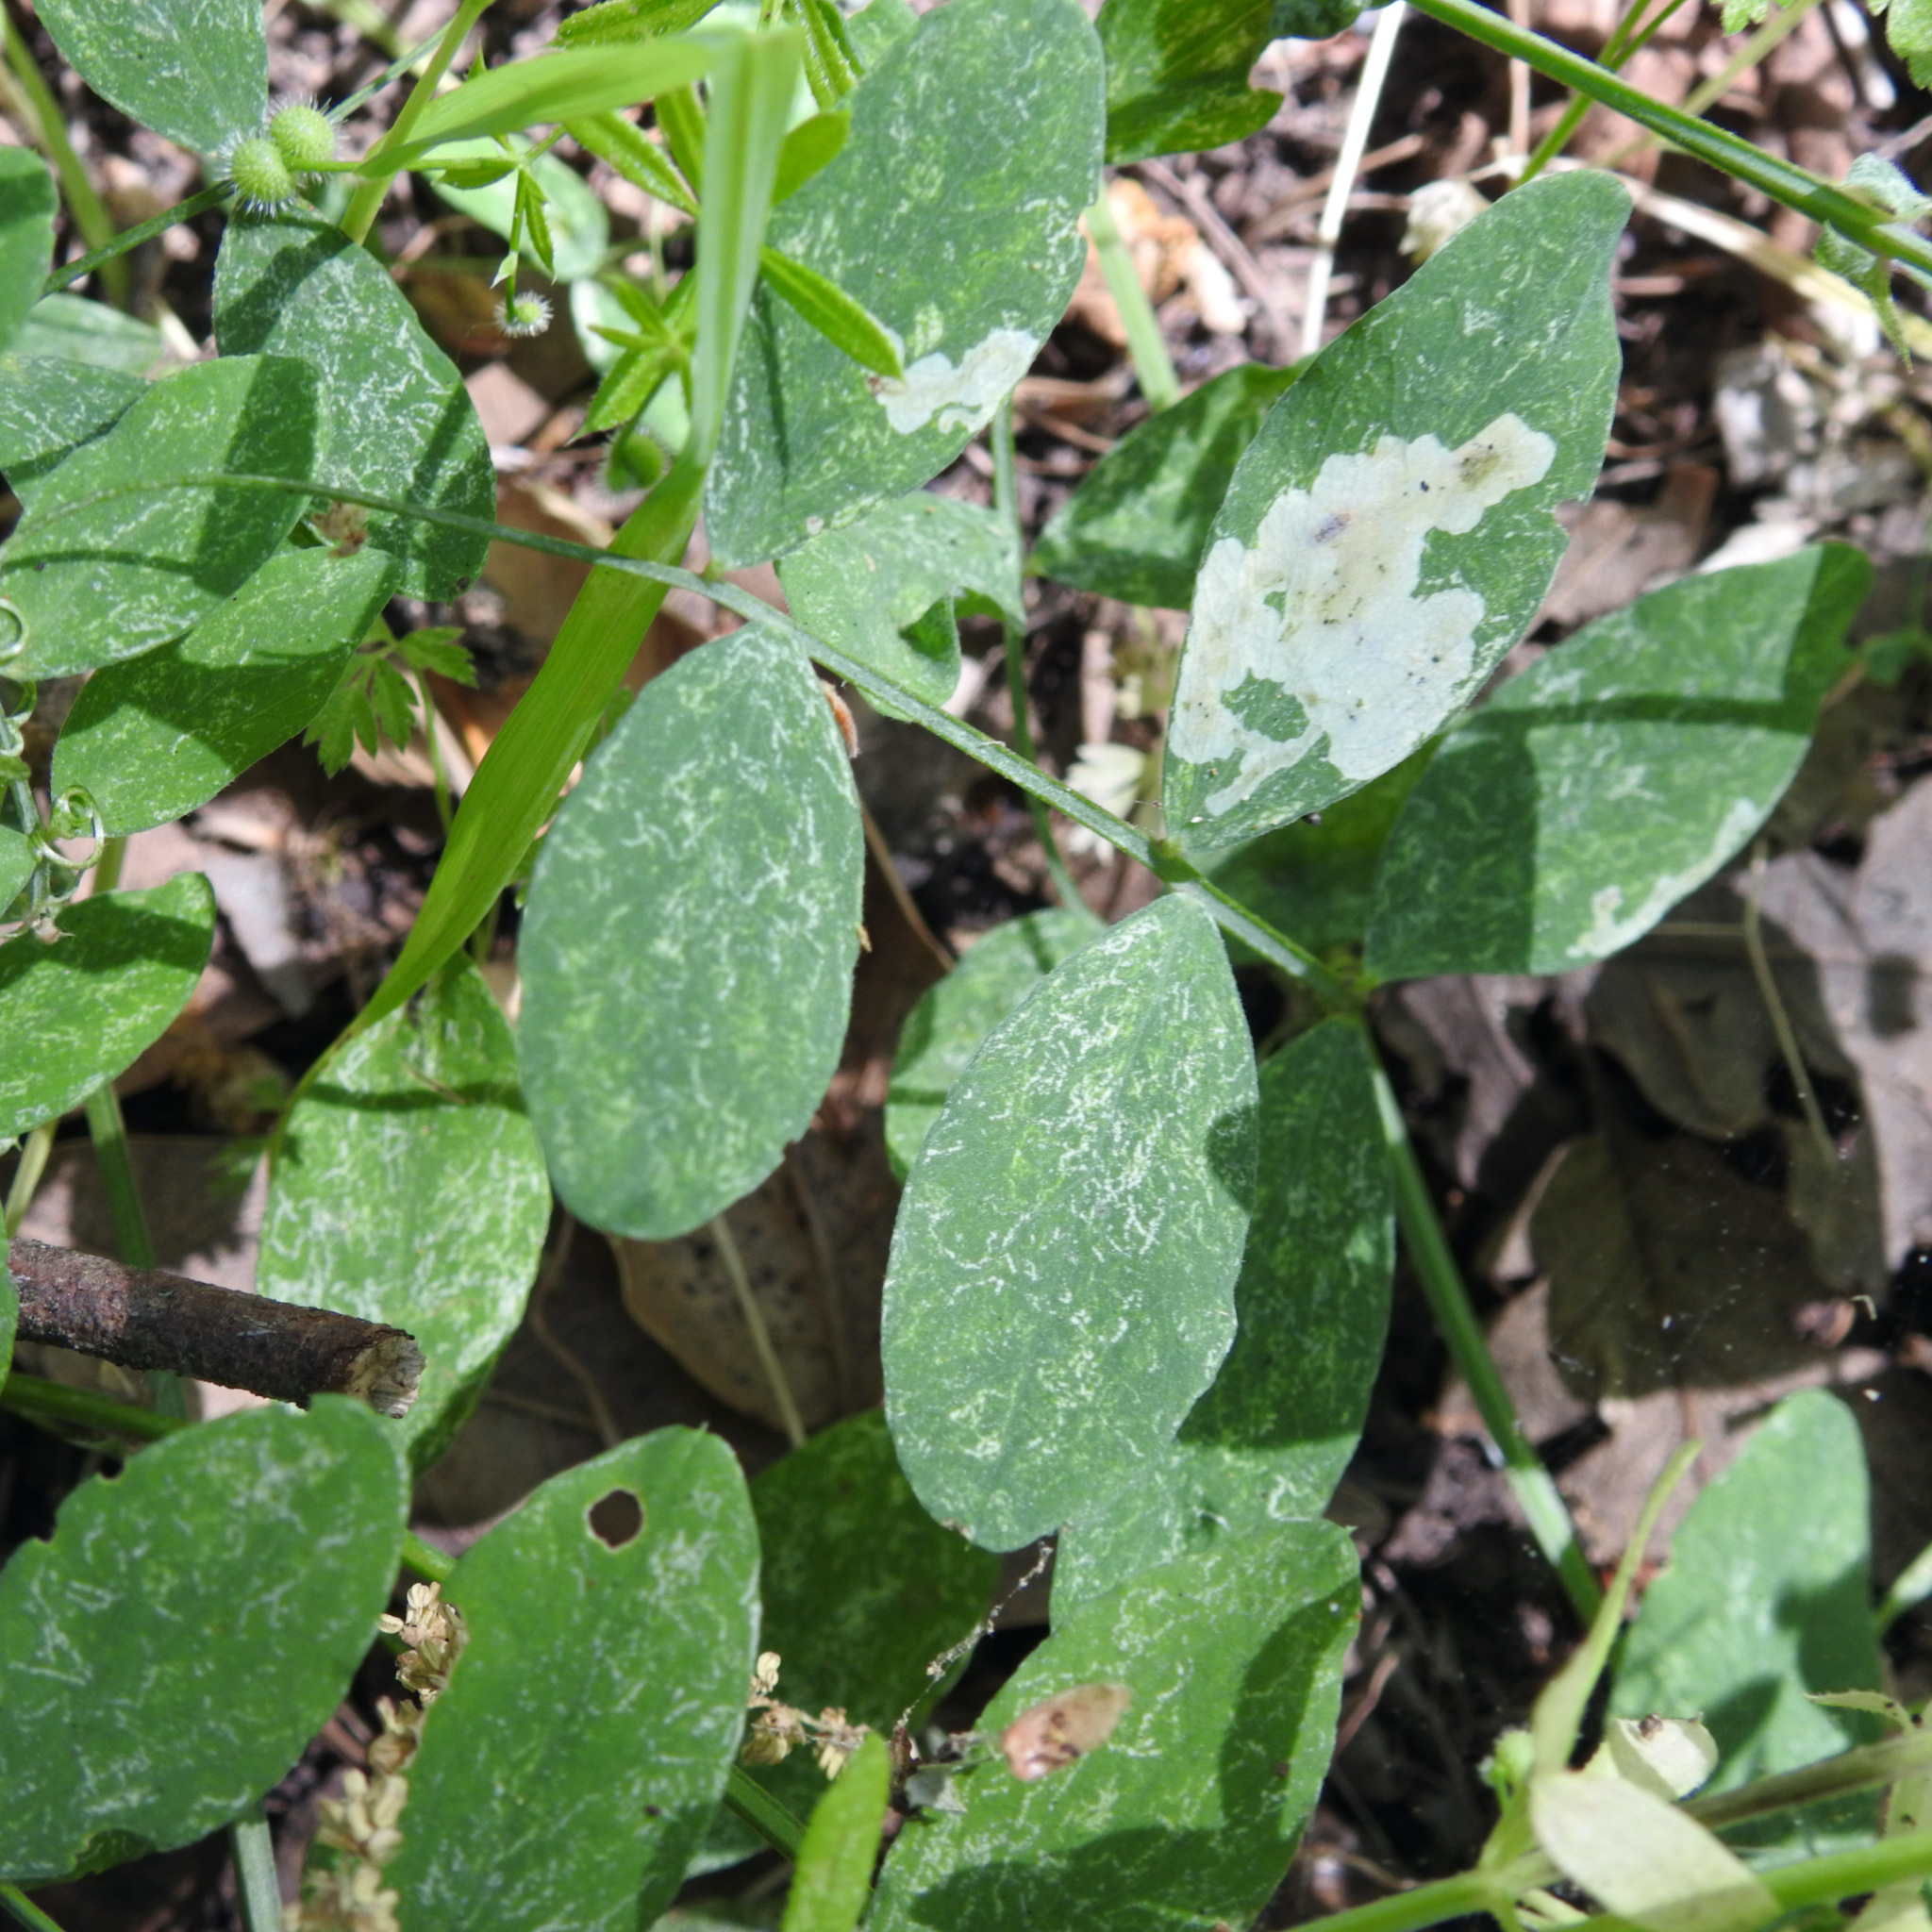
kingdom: Plantae
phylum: Tracheophyta
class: Magnoliopsida
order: Fabales
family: Fabaceae
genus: Lathyrus
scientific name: Lathyrus vestitus
